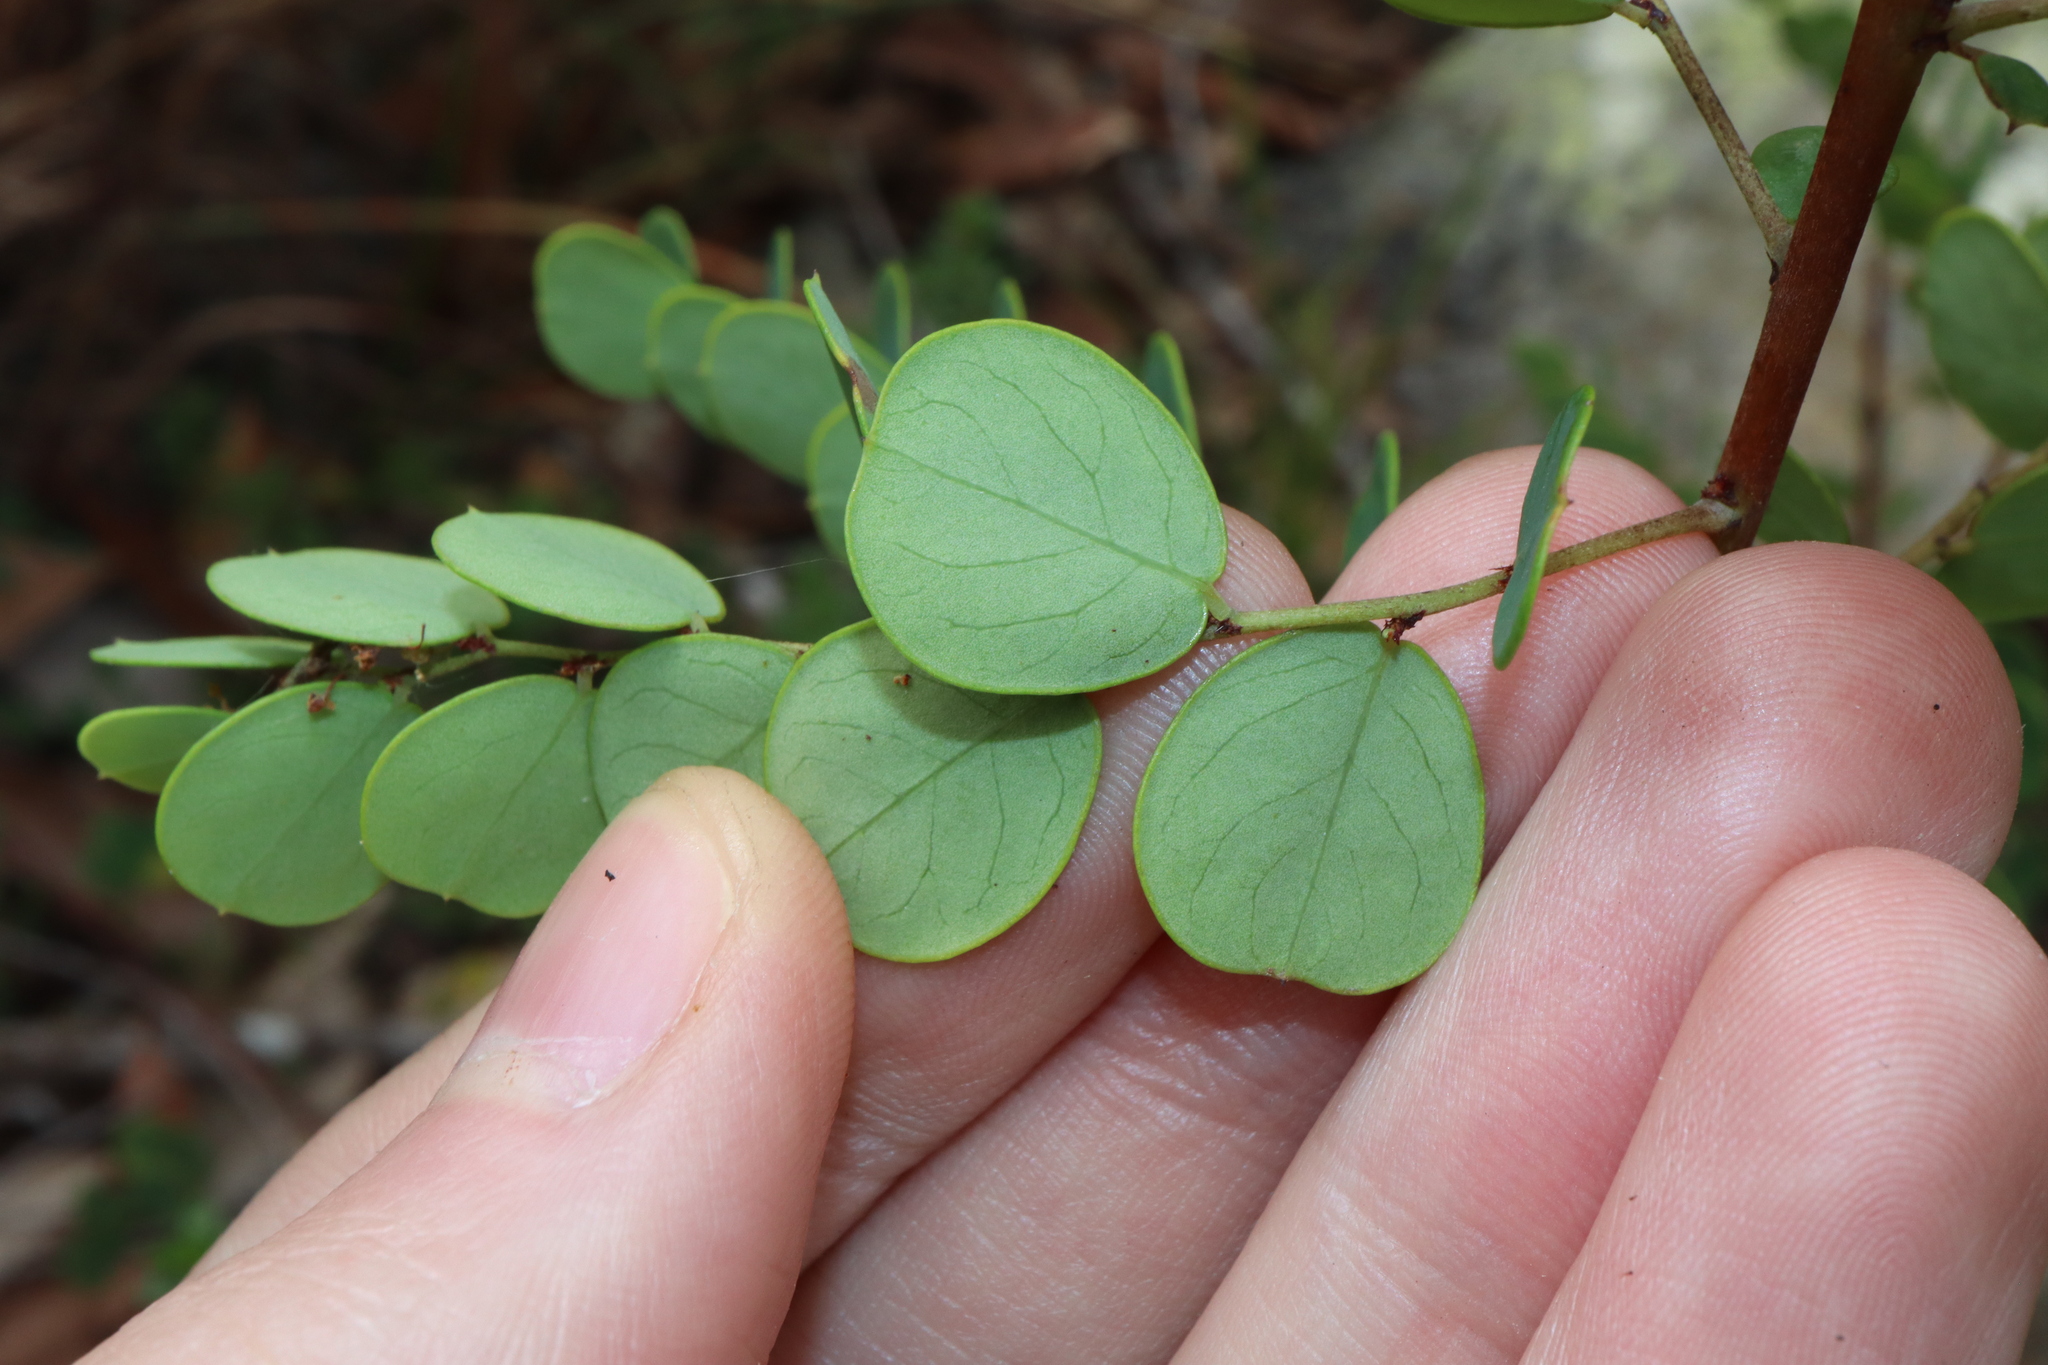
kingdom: Plantae
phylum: Tracheophyta
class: Magnoliopsida
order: Malpighiales
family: Phyllanthaceae
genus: Phyllanthus
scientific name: Phyllanthus dallachyanus
